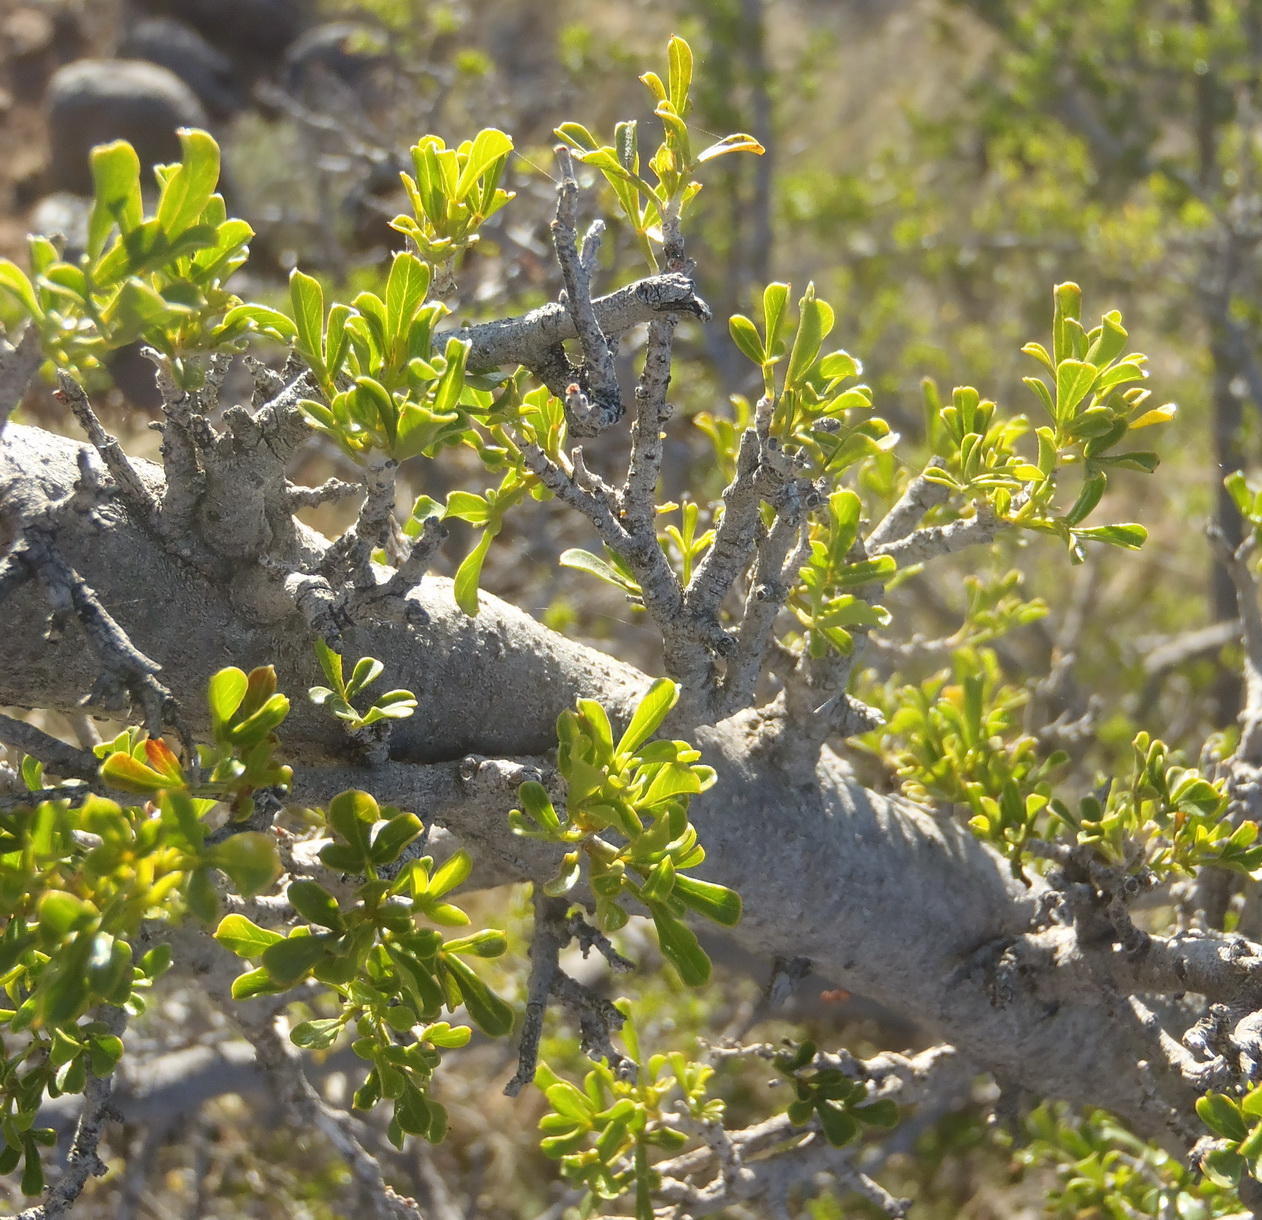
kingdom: Plantae
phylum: Tracheophyta
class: Magnoliopsida
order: Sapindales
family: Anacardiaceae
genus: Searsia
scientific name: Searsia burchellii
